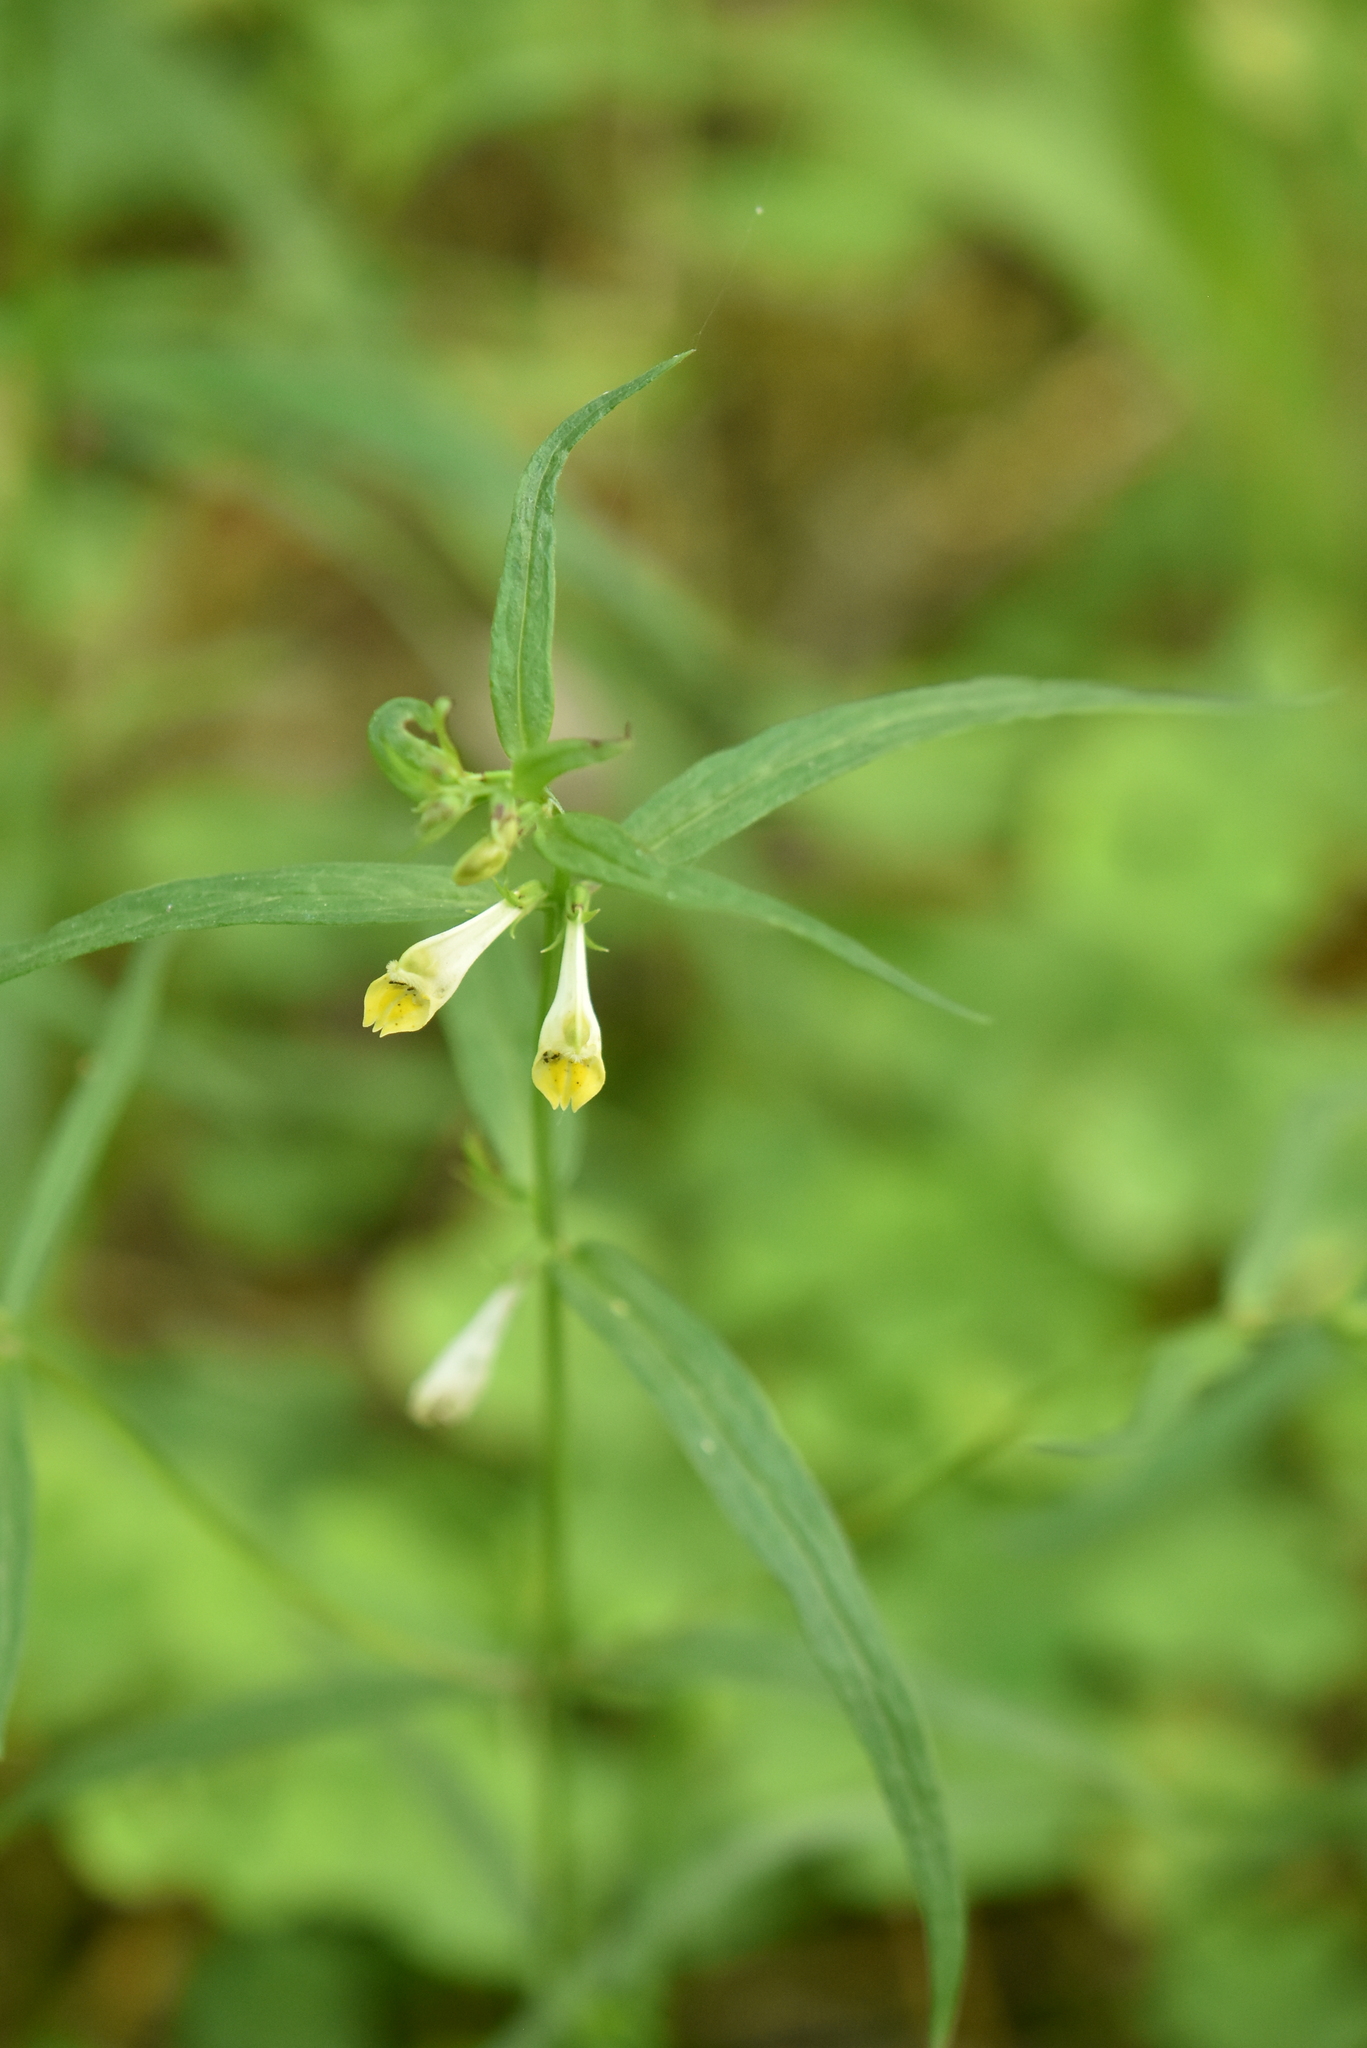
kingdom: Plantae
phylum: Tracheophyta
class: Magnoliopsida
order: Lamiales
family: Orobanchaceae
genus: Melampyrum
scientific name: Melampyrum pratense
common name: Common cow-wheat
